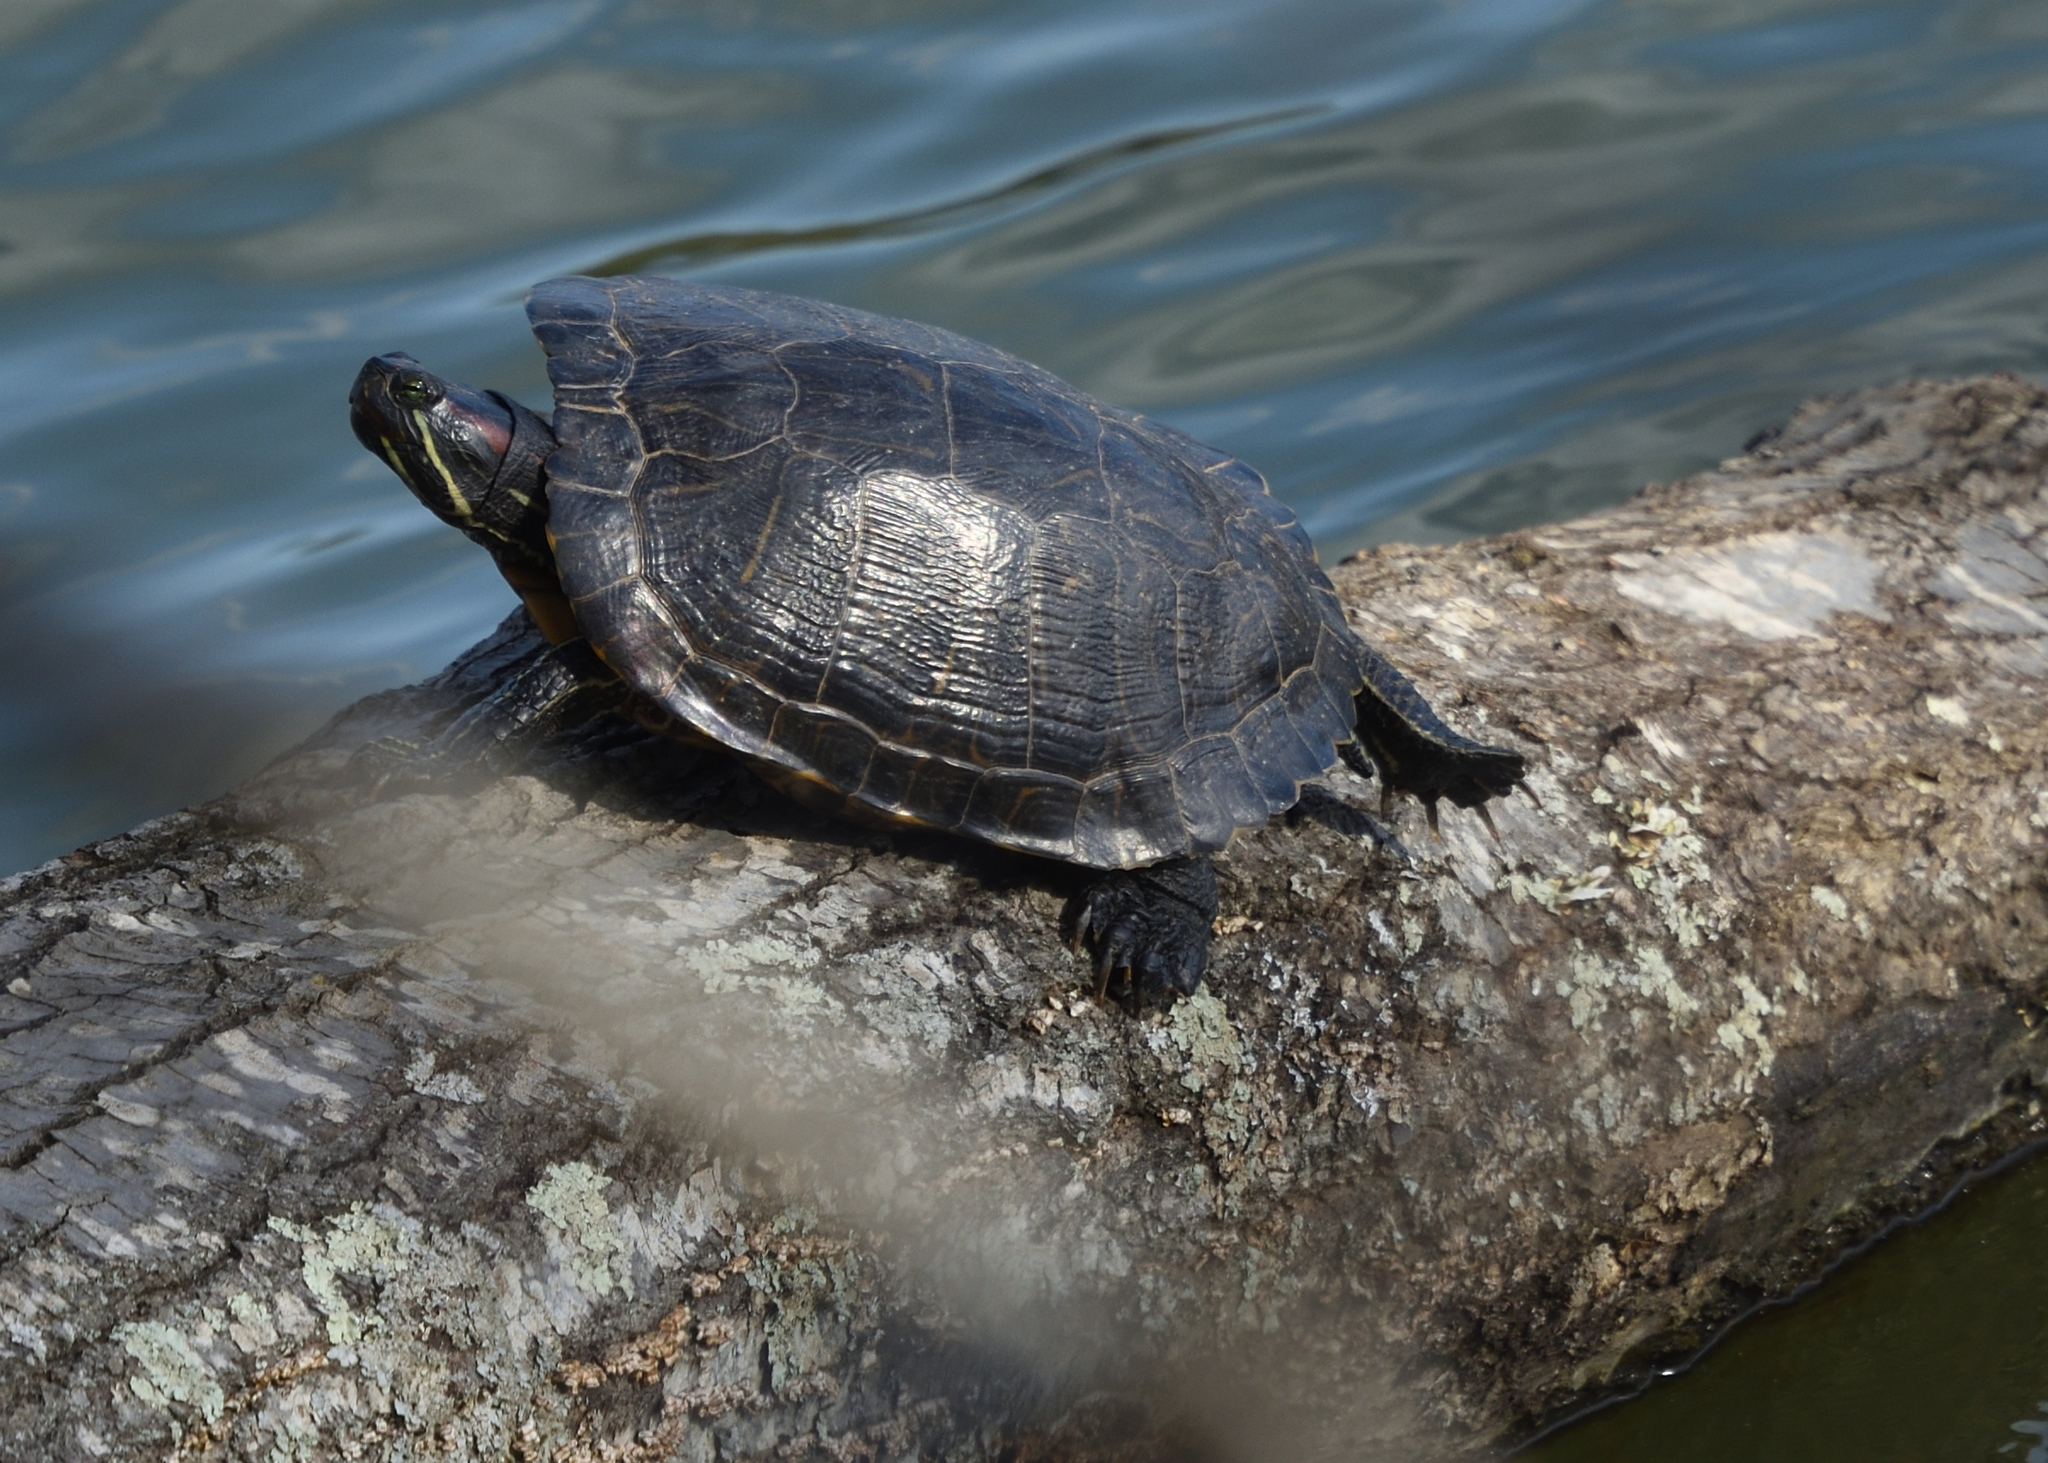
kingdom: Animalia
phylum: Chordata
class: Testudines
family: Emydidae
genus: Trachemys
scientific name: Trachemys scripta
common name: Slider
